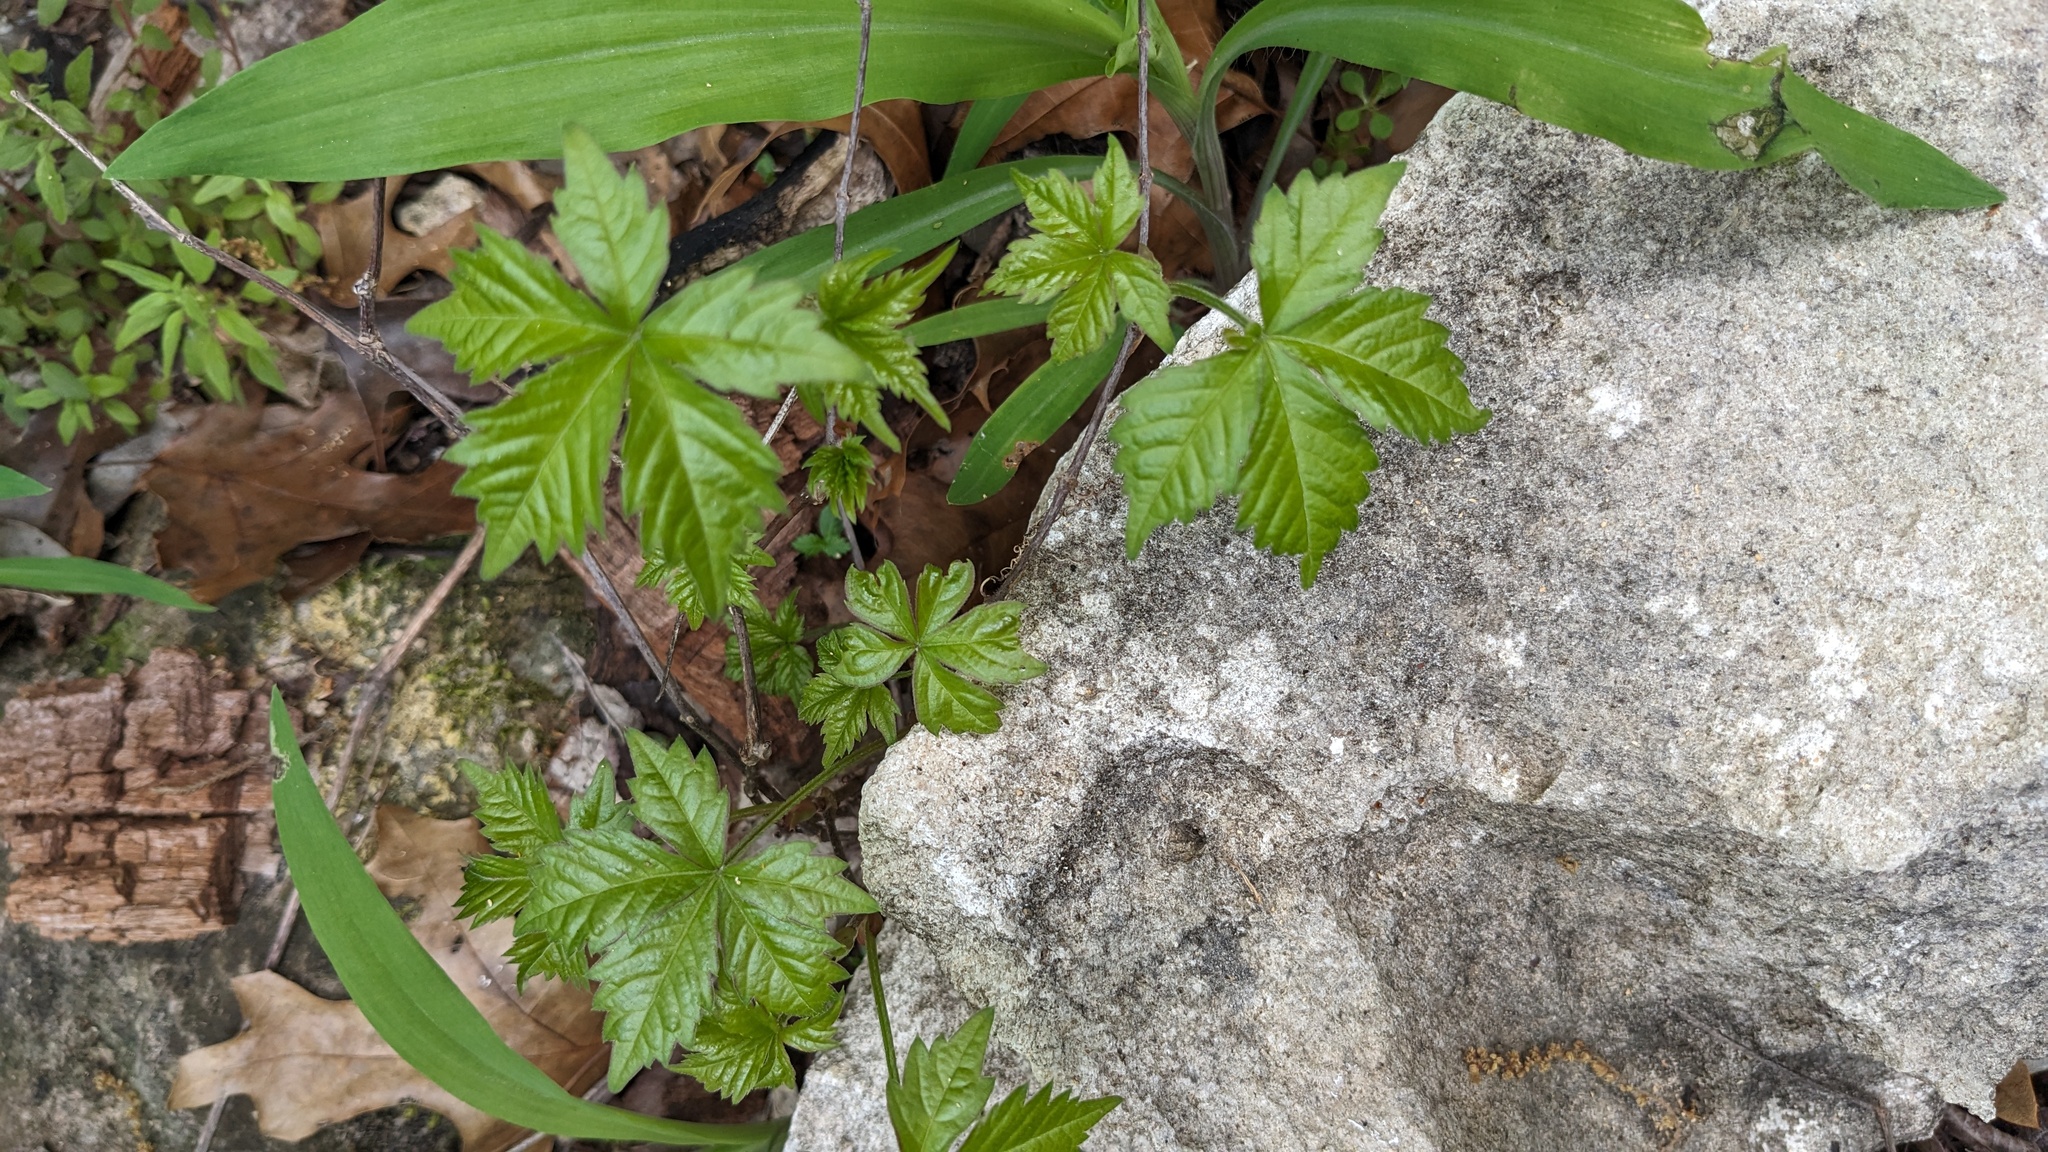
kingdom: Plantae
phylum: Tracheophyta
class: Magnoliopsida
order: Vitales
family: Vitaceae
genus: Parthenocissus
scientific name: Parthenocissus quinquefolia
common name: Virginia-creeper
